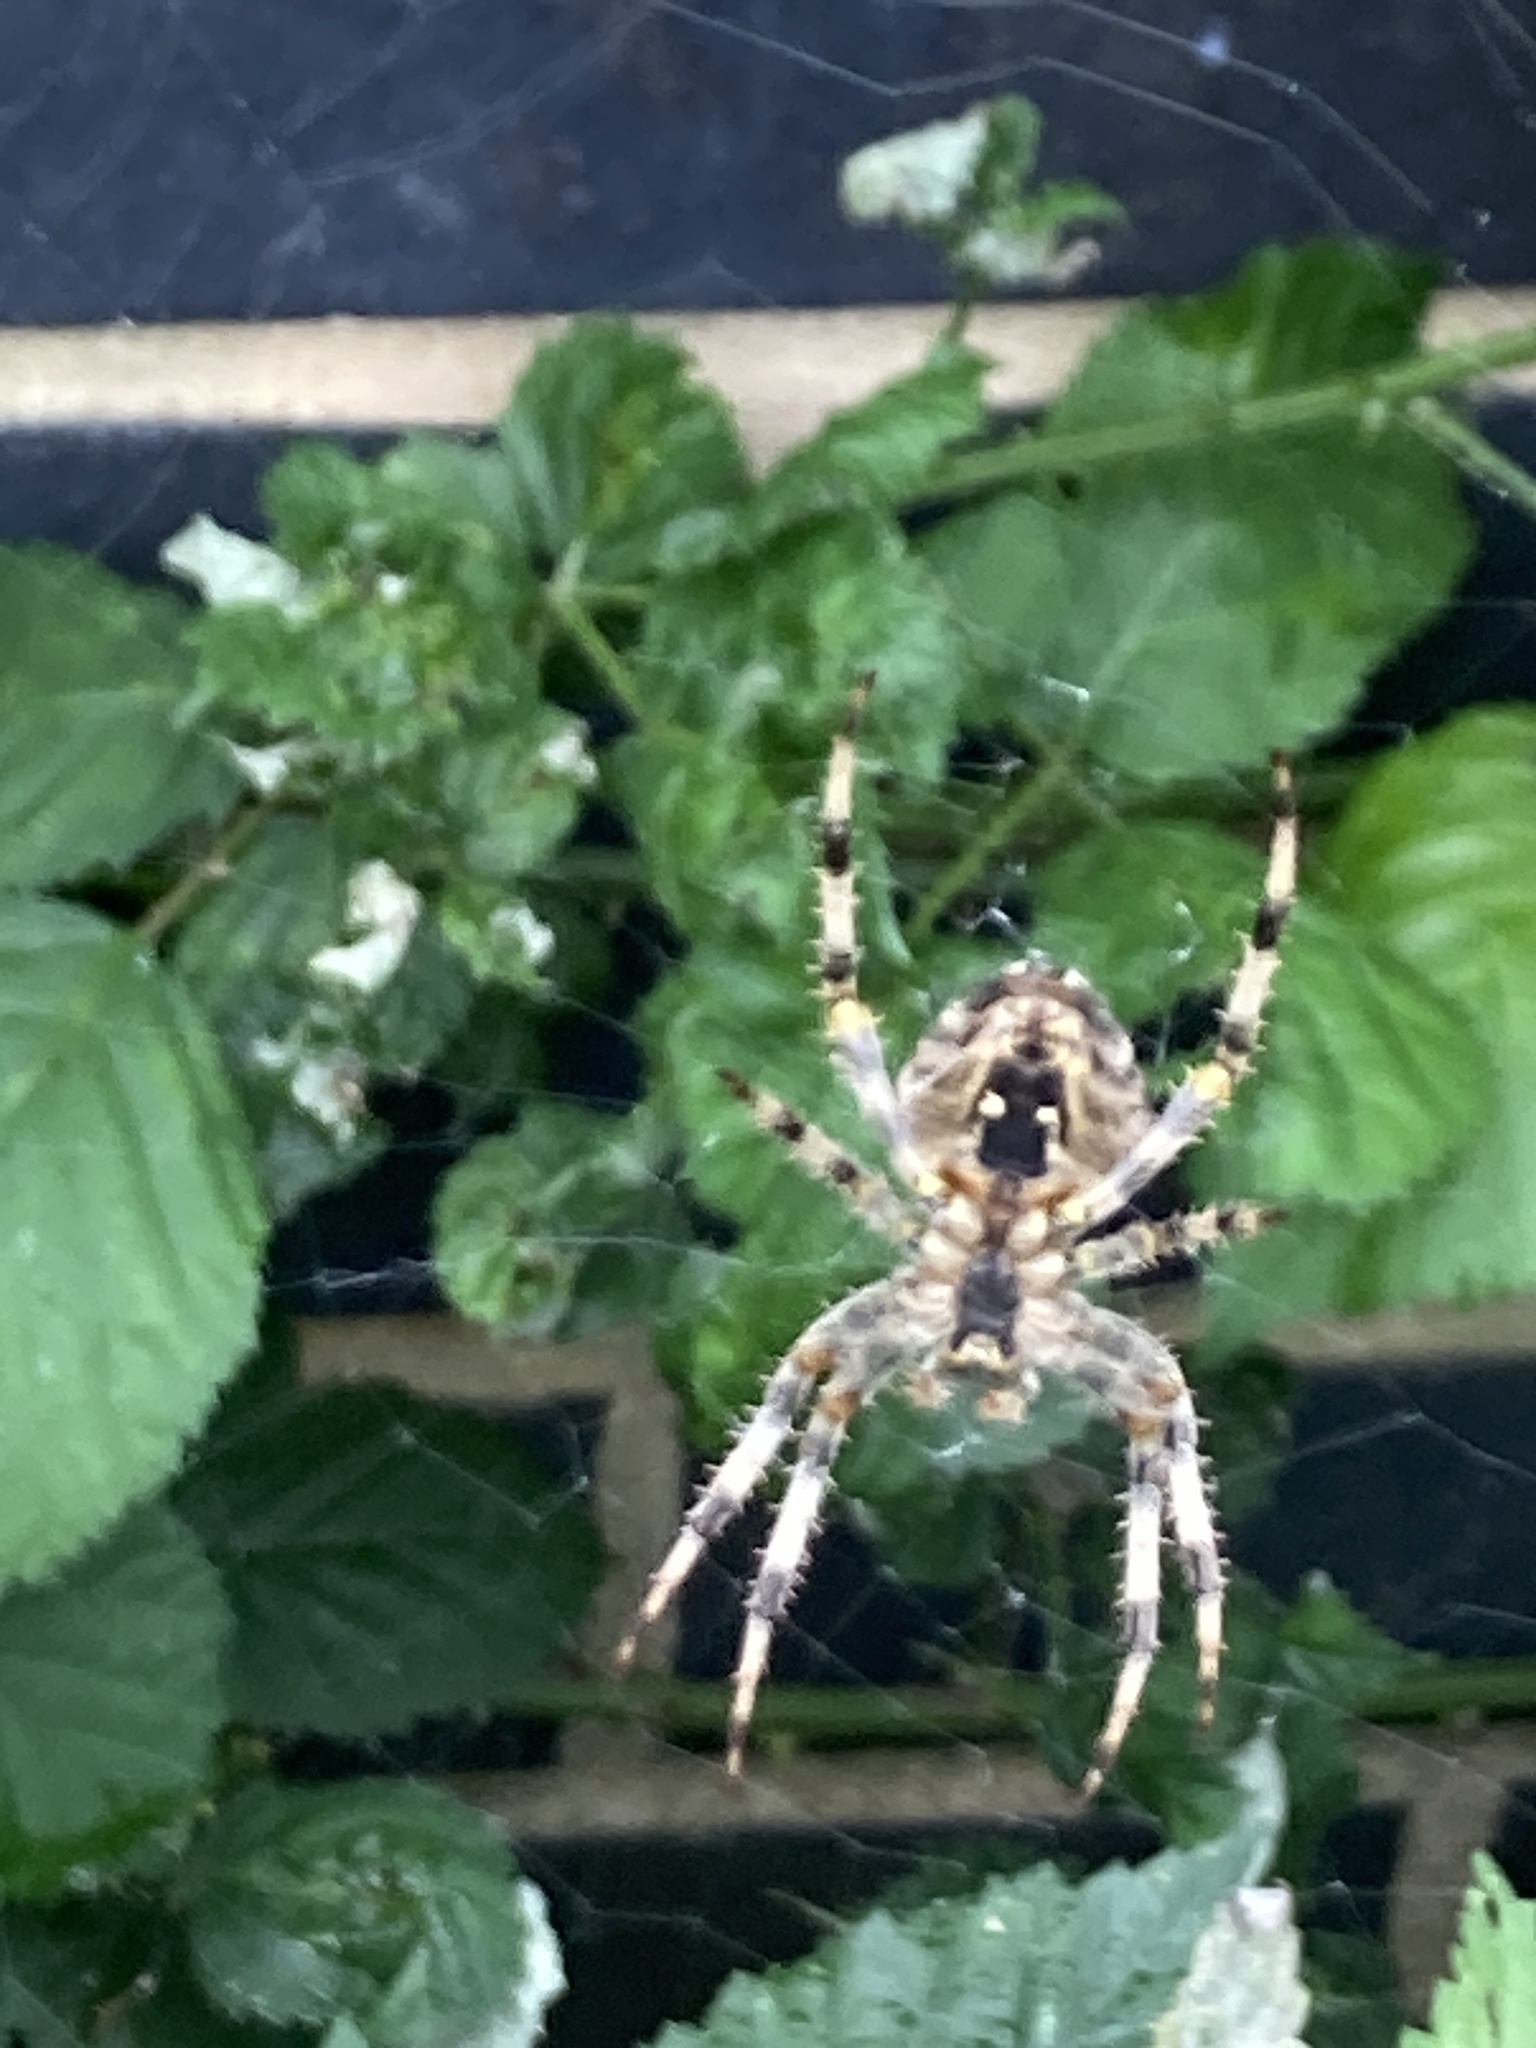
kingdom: Animalia
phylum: Arthropoda
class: Arachnida
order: Araneae
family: Araneidae
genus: Araneus
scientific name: Araneus diadematus
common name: Cross orbweaver
